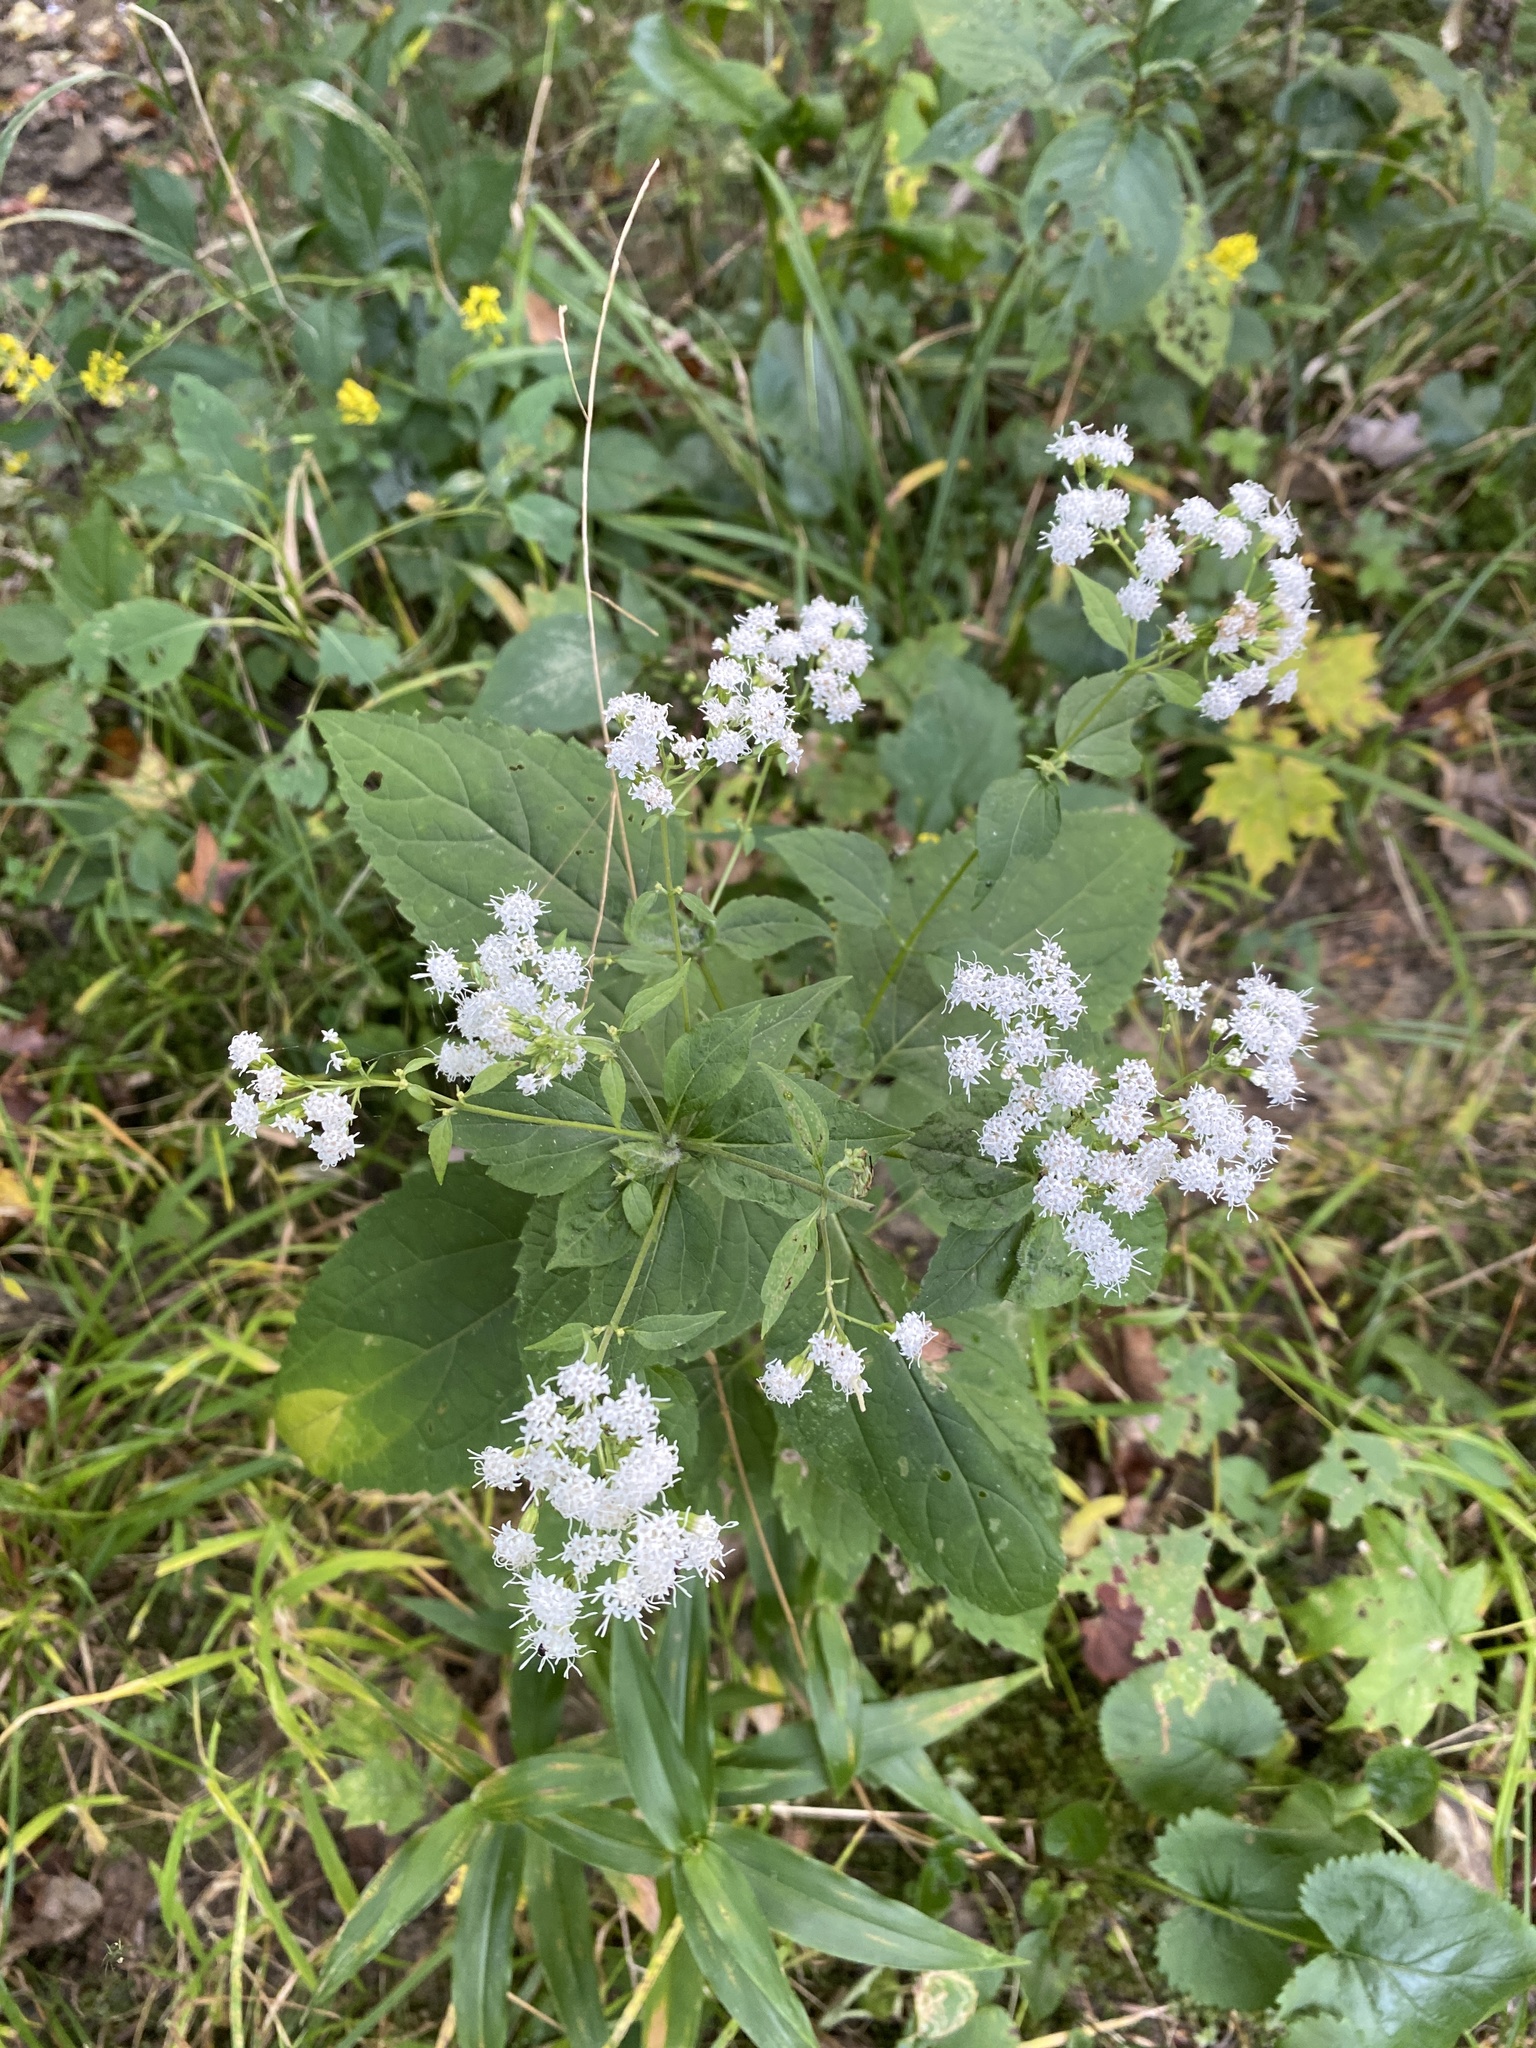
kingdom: Plantae
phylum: Tracheophyta
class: Magnoliopsida
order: Asterales
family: Asteraceae
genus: Ageratina
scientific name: Ageratina altissima
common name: White snakeroot
